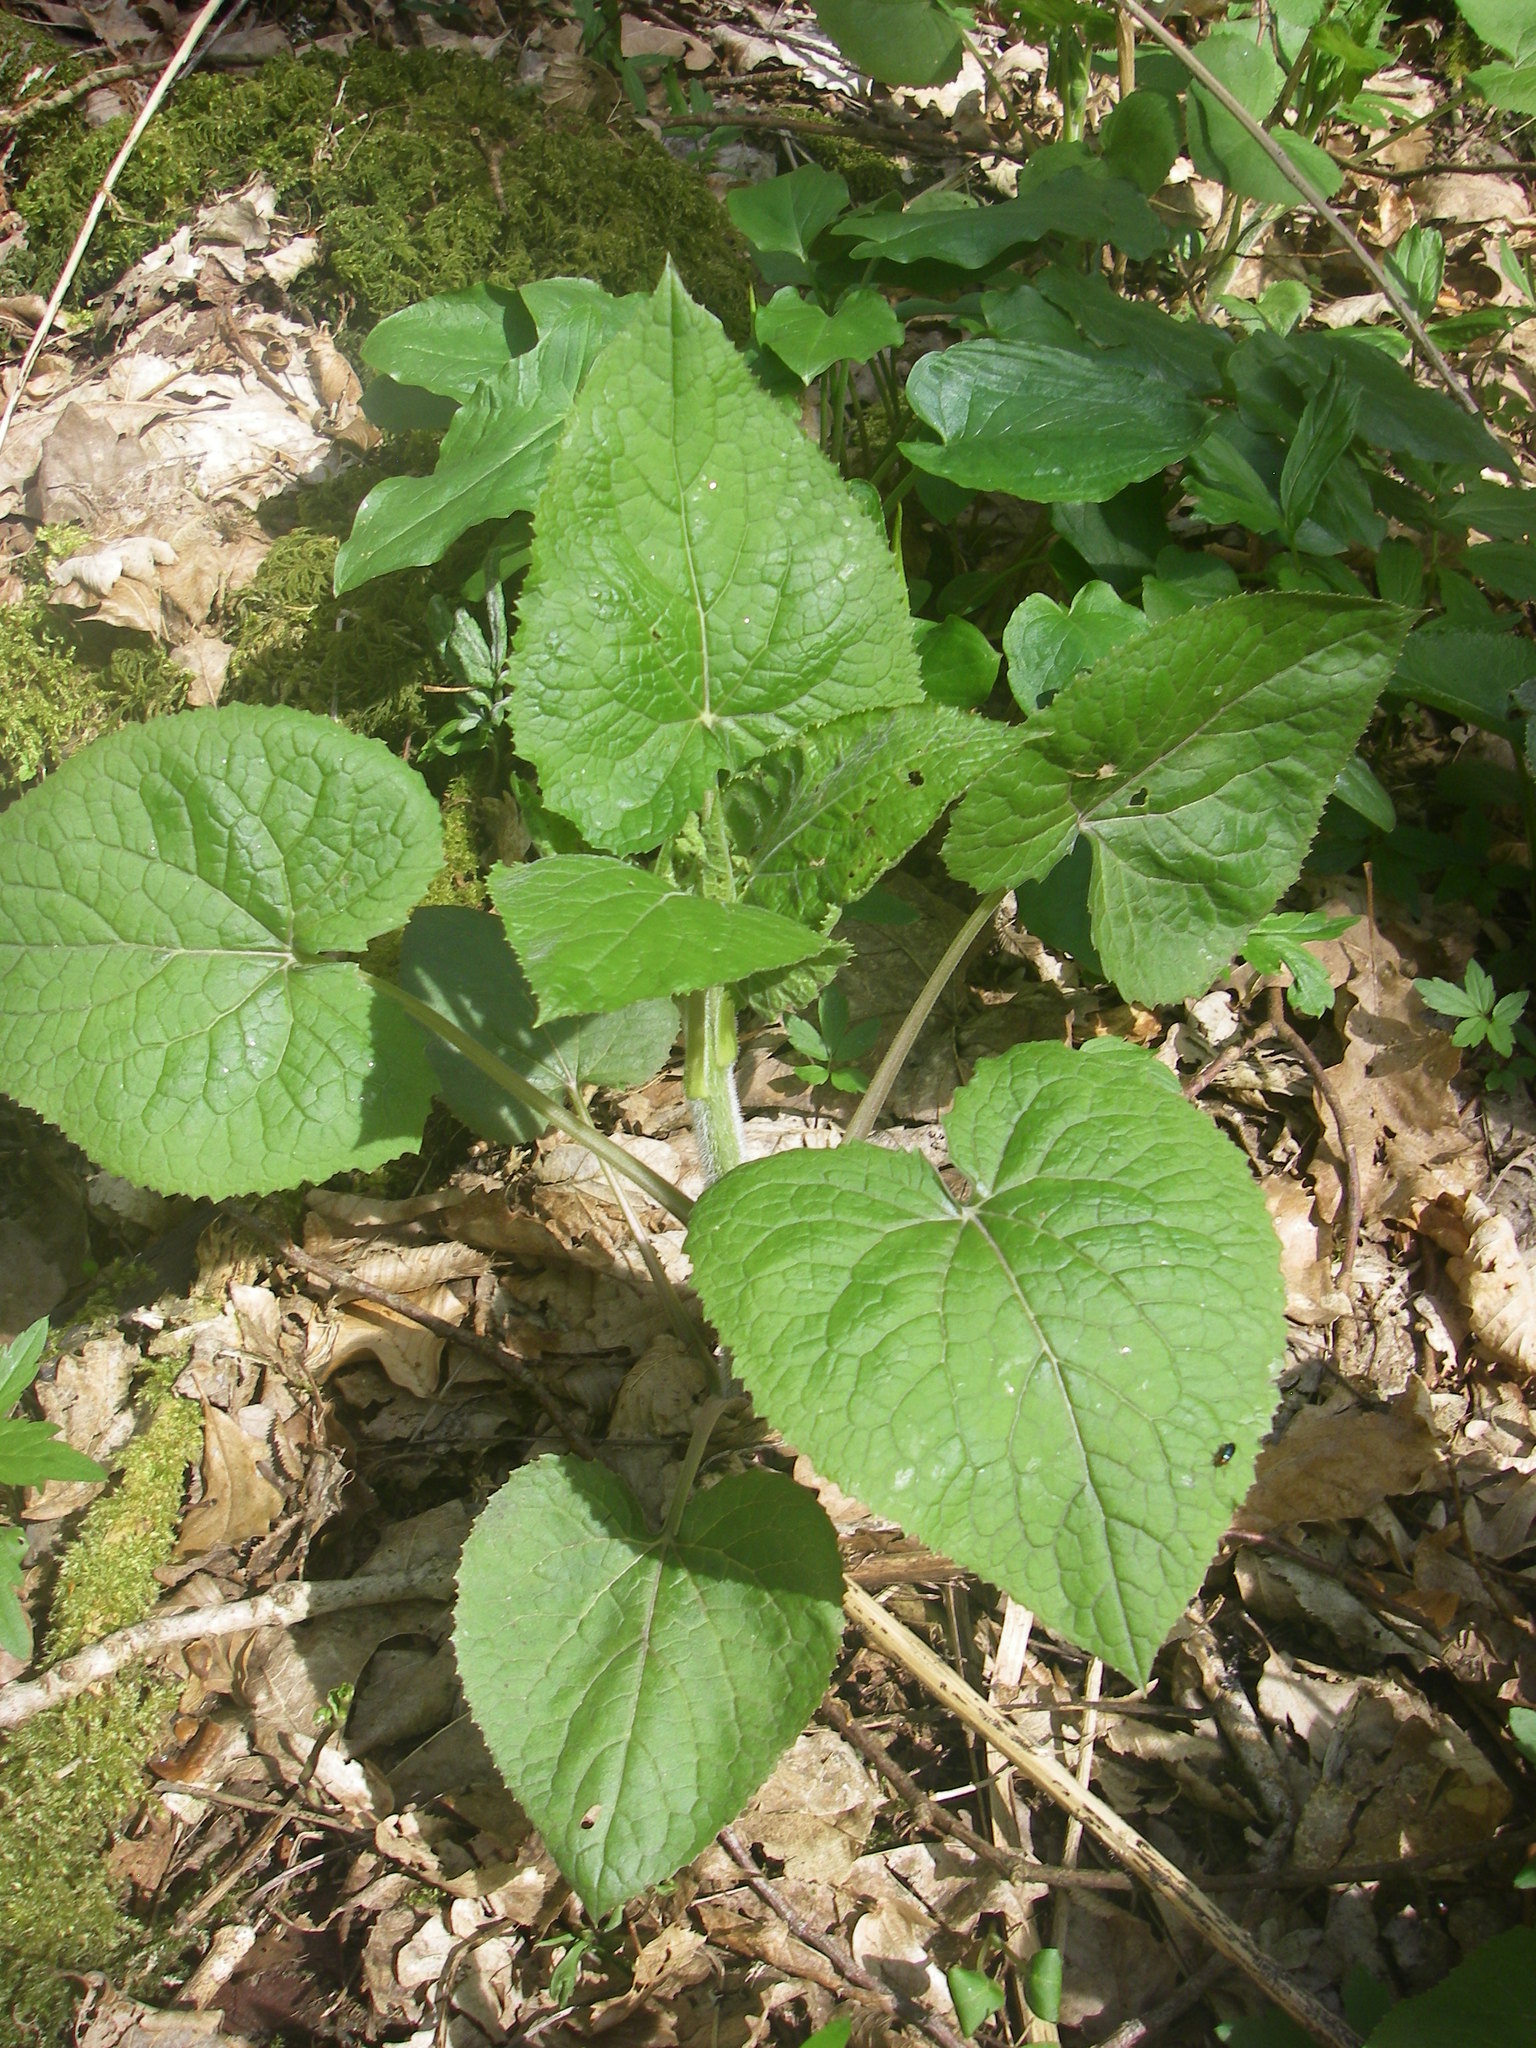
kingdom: Plantae
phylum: Tracheophyta
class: Magnoliopsida
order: Brassicales
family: Brassicaceae
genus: Lunaria
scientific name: Lunaria rediviva
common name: Perennial honesty
